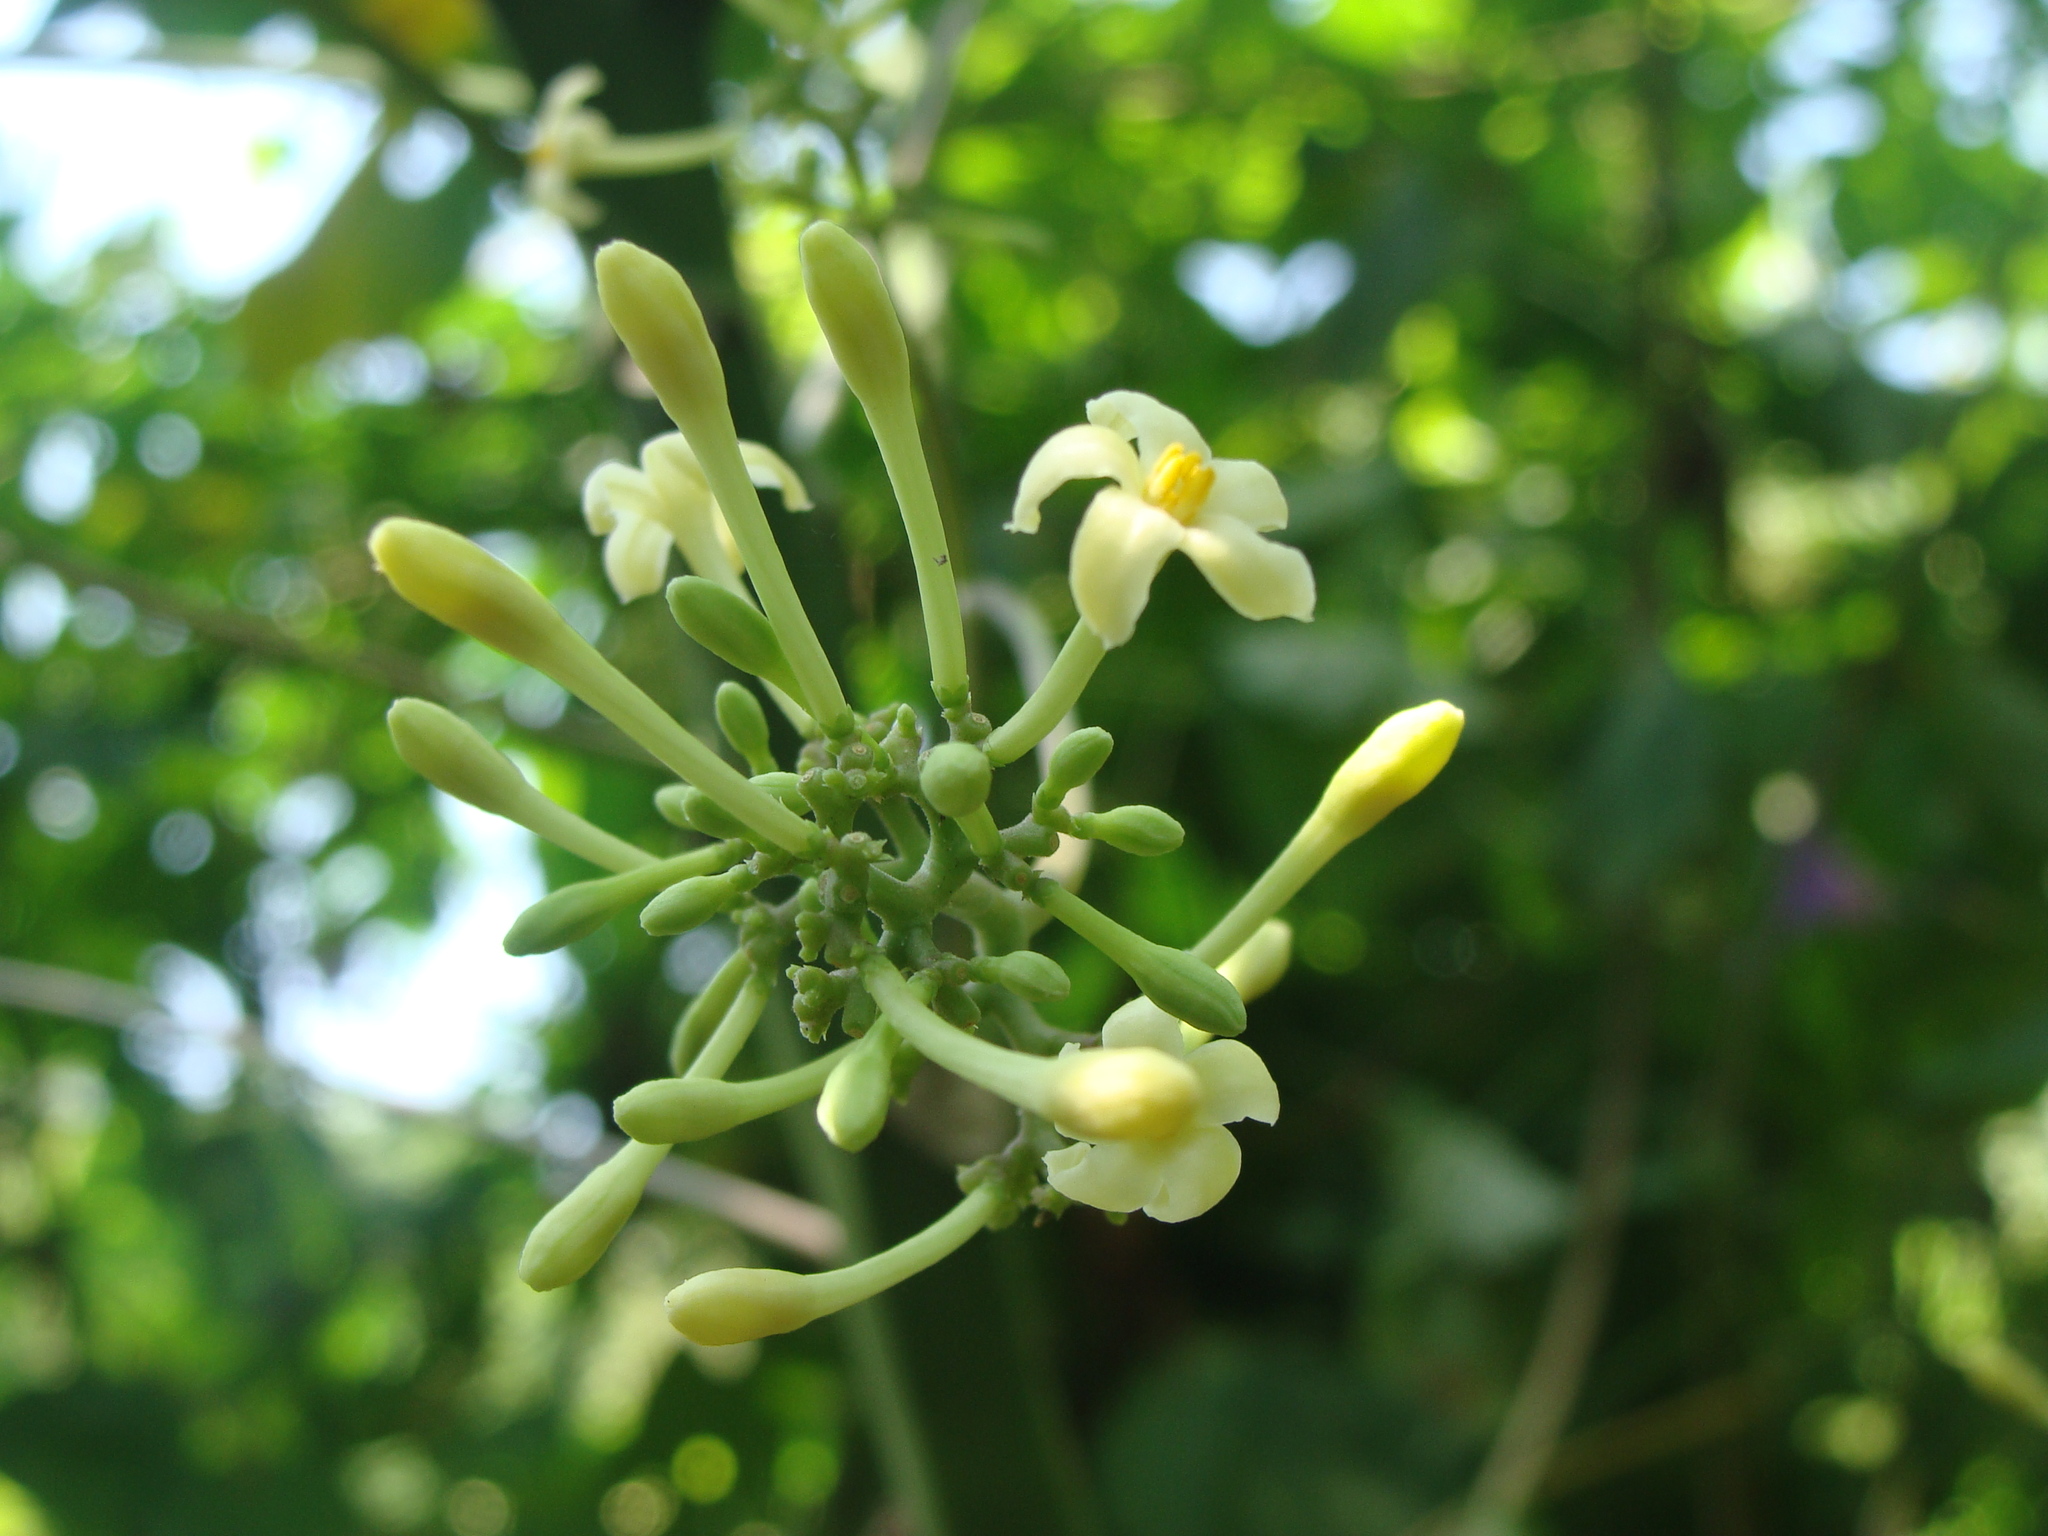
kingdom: Plantae
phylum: Tracheophyta
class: Magnoliopsida
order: Brassicales
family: Caricaceae
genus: Carica
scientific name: Carica papaya
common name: Papaya
